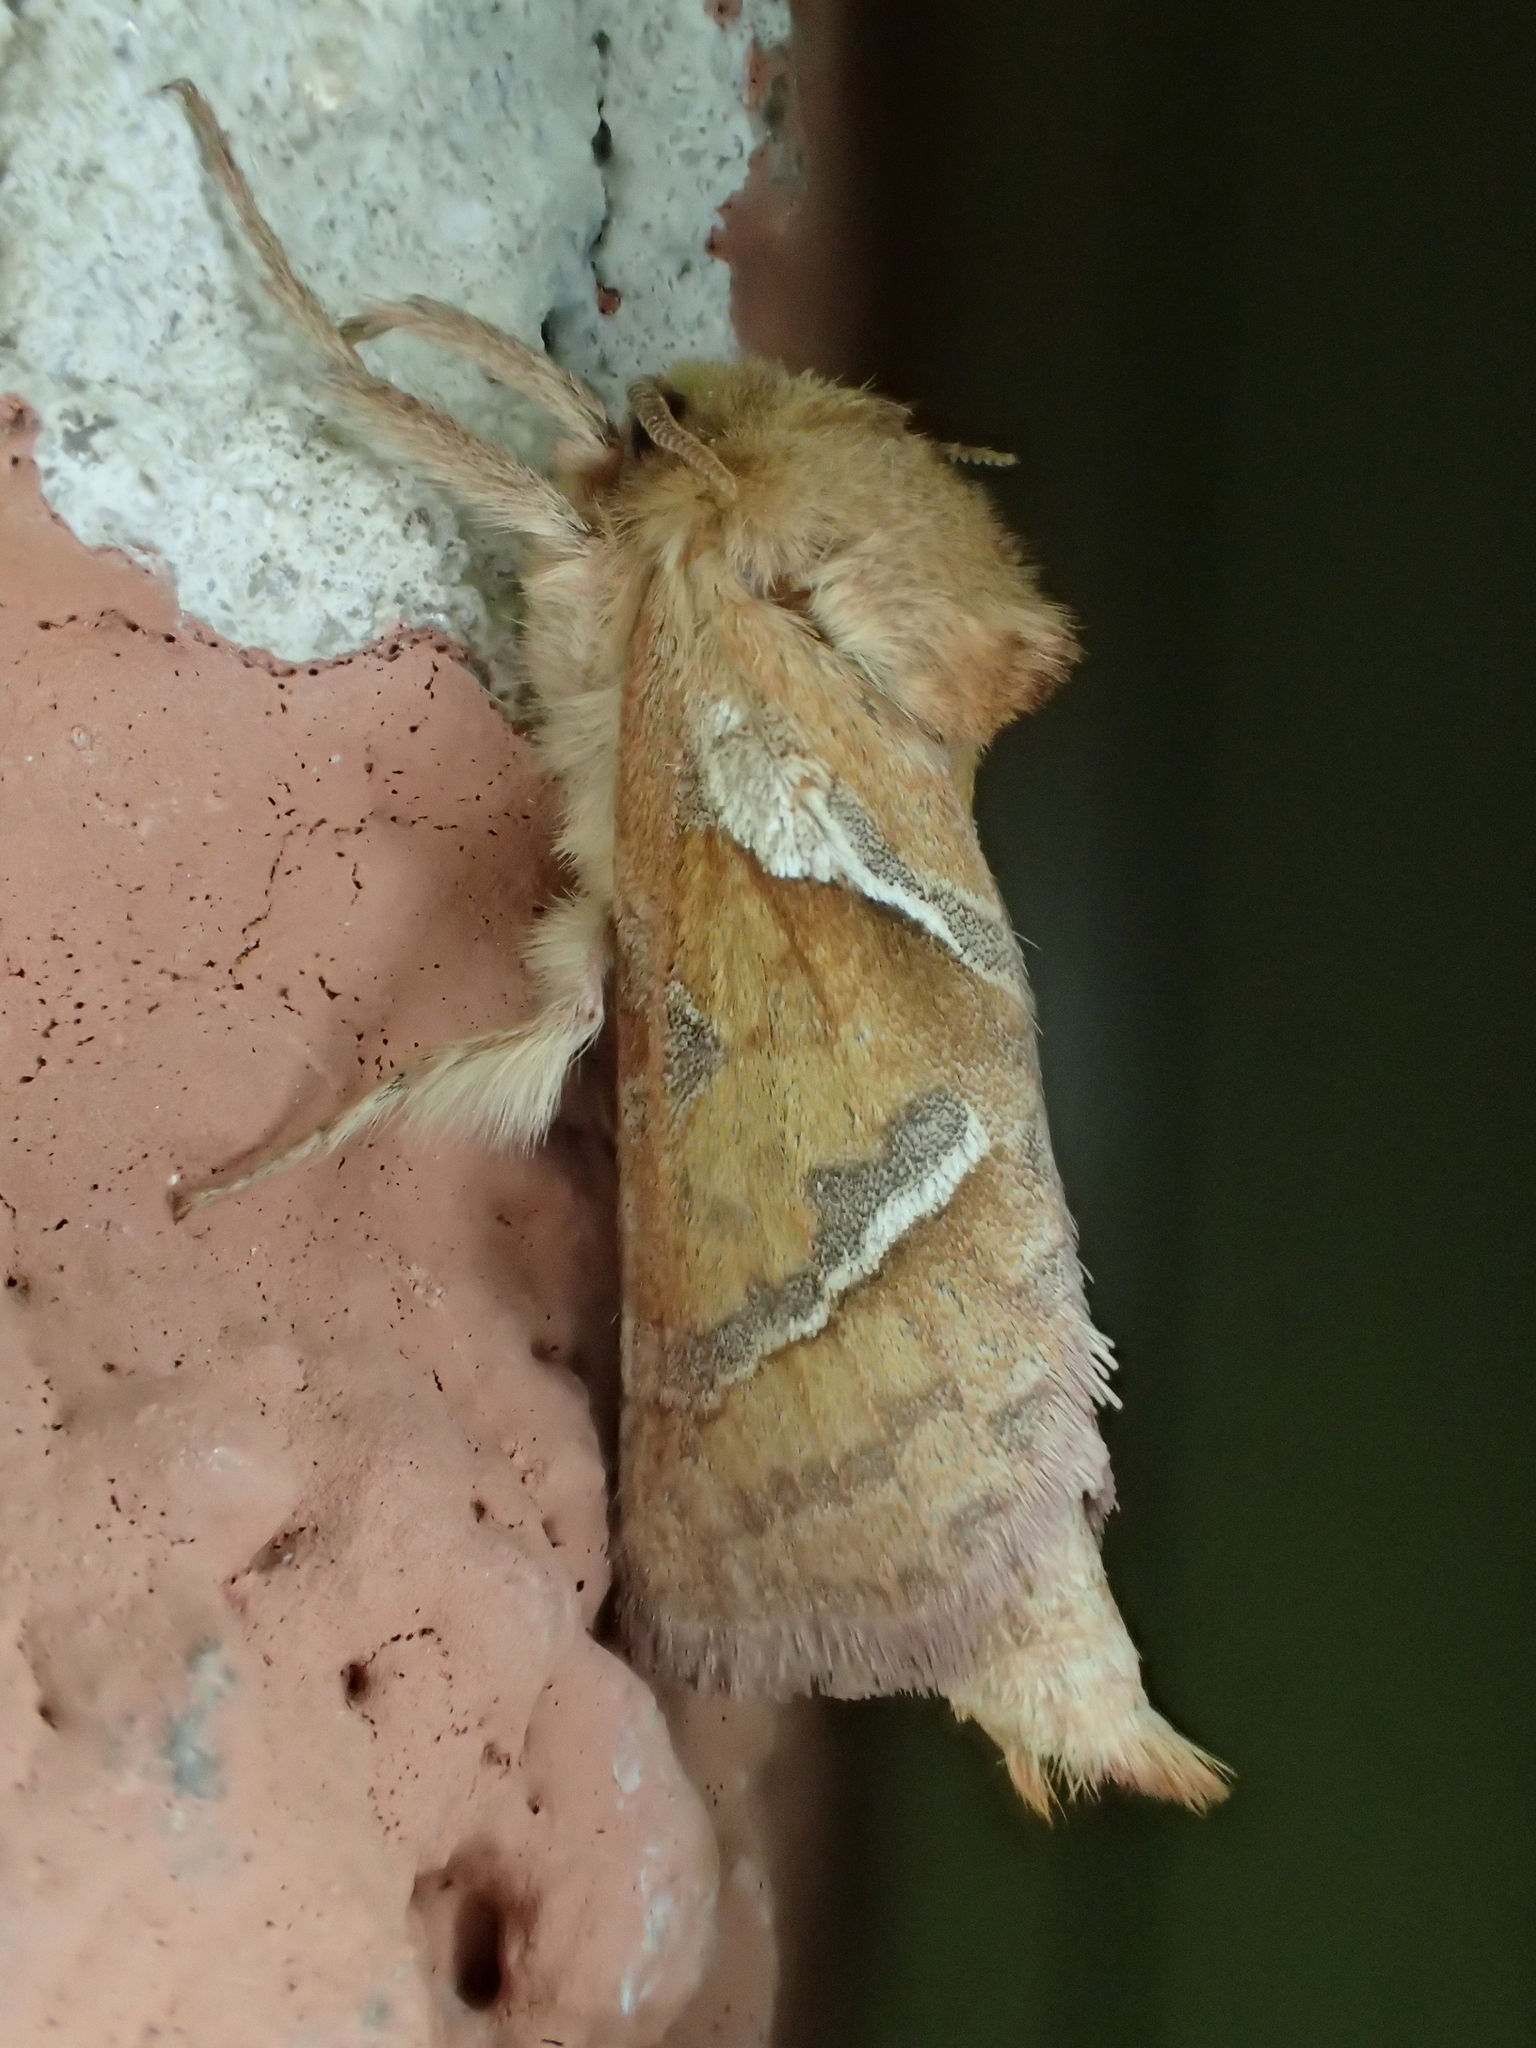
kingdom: Animalia
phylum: Arthropoda
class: Insecta
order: Lepidoptera
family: Hepialidae
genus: Triodia
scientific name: Triodia sylvina
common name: Orange swift
